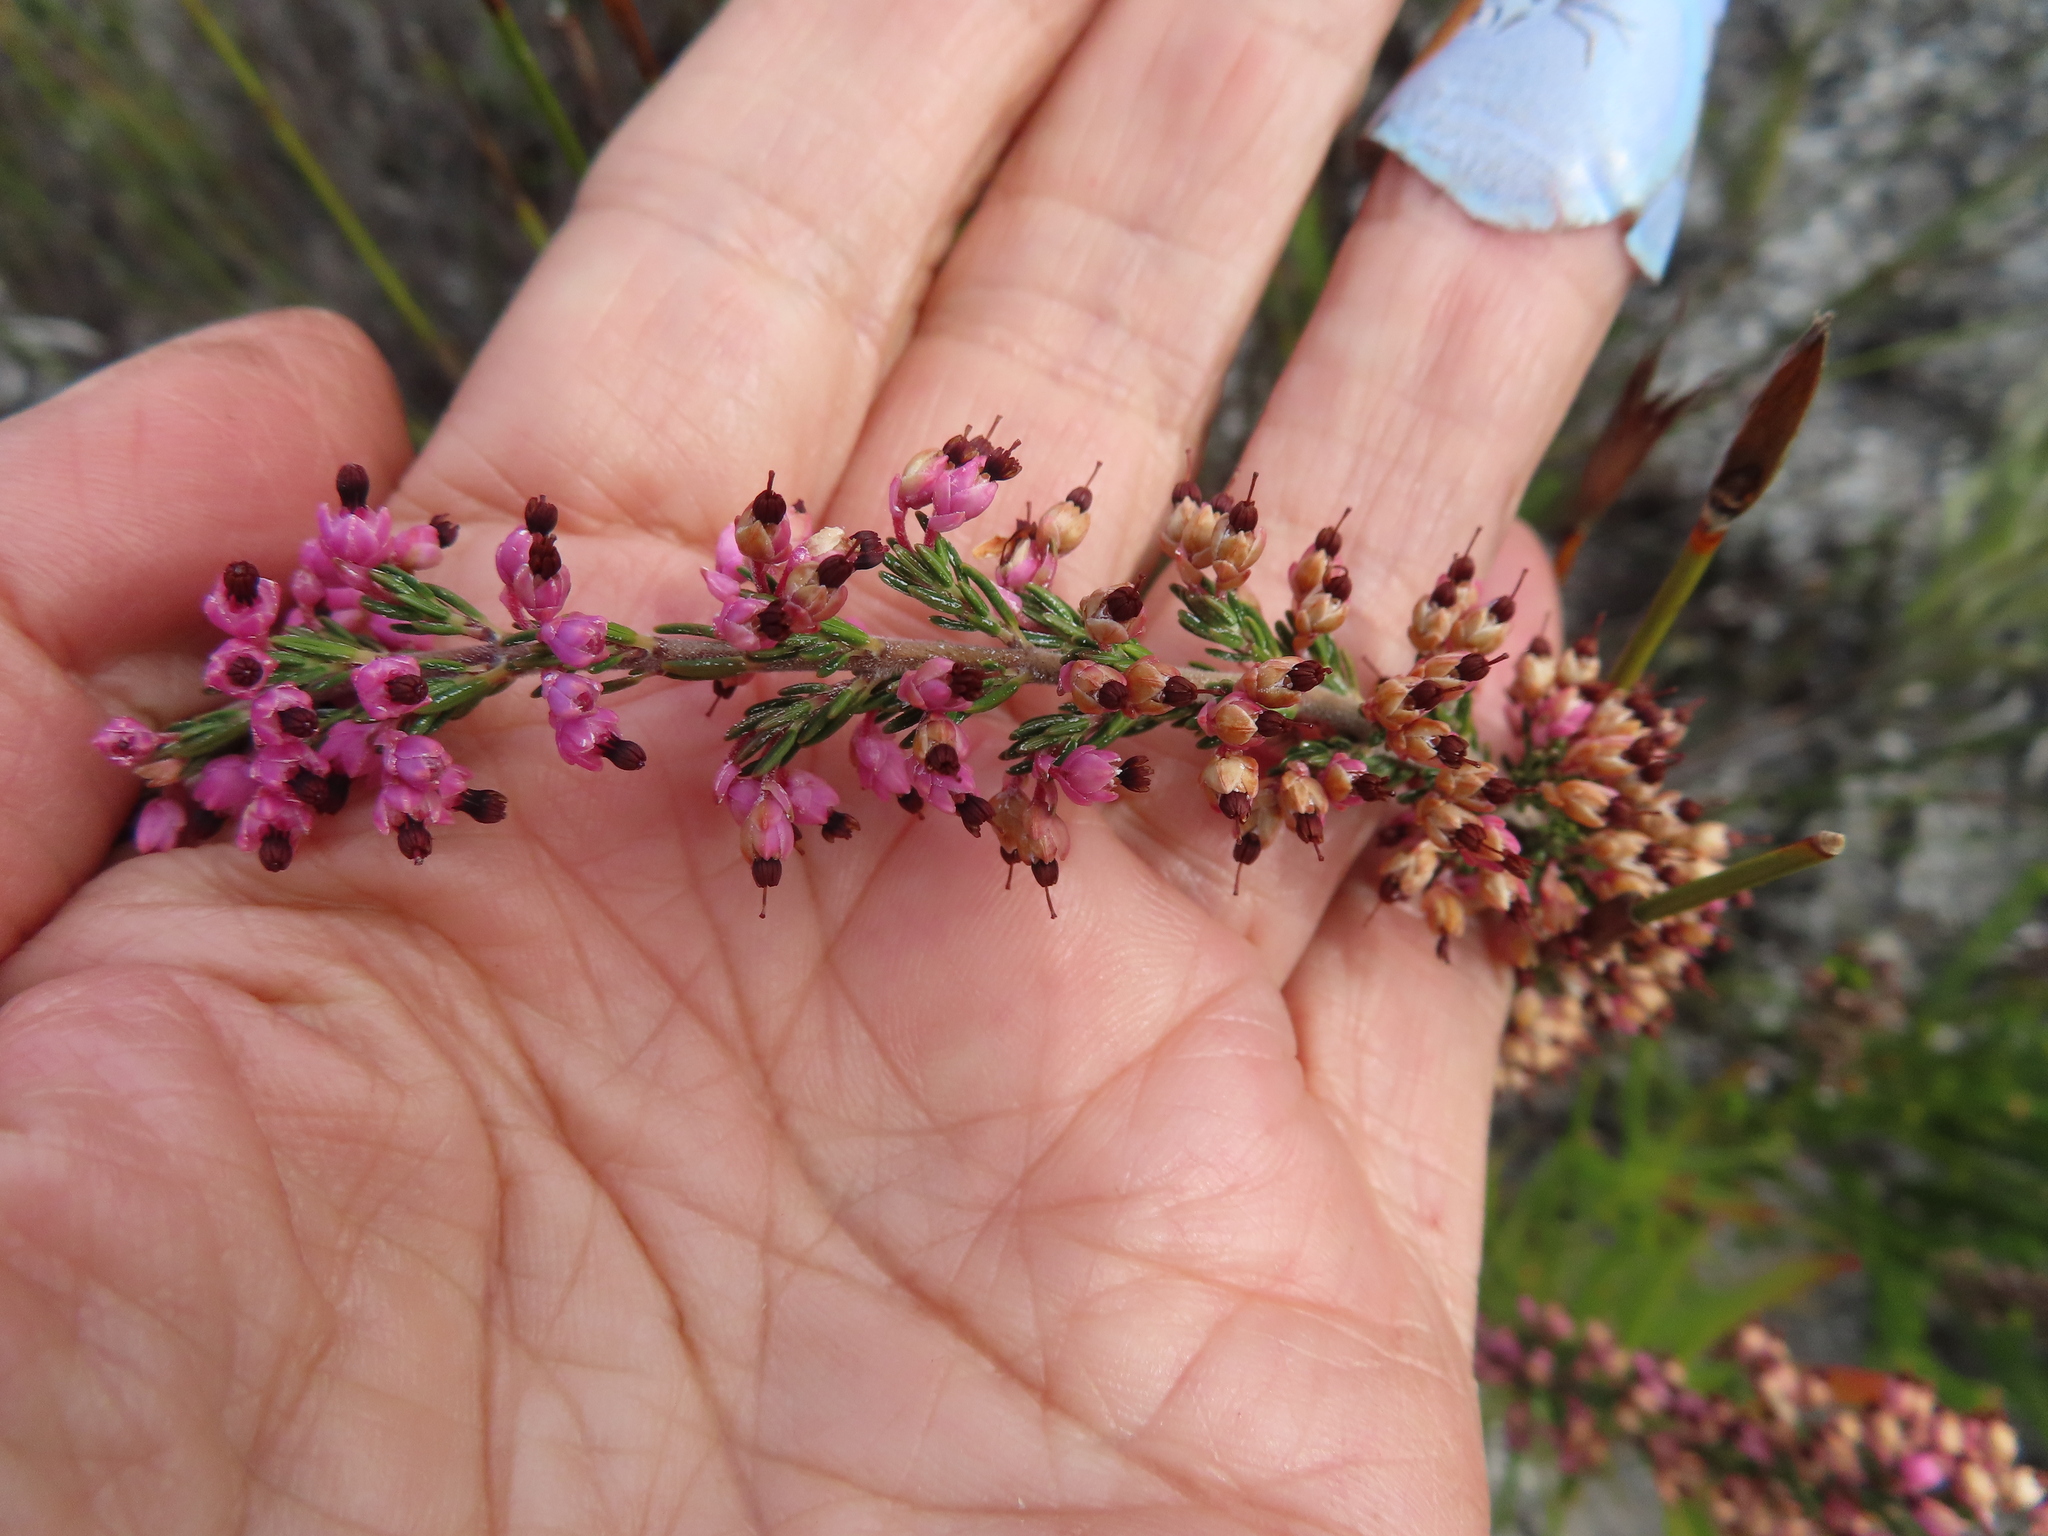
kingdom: Plantae
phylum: Tracheophyta
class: Magnoliopsida
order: Ericales
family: Ericaceae
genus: Erica
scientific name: Erica placentiflora
